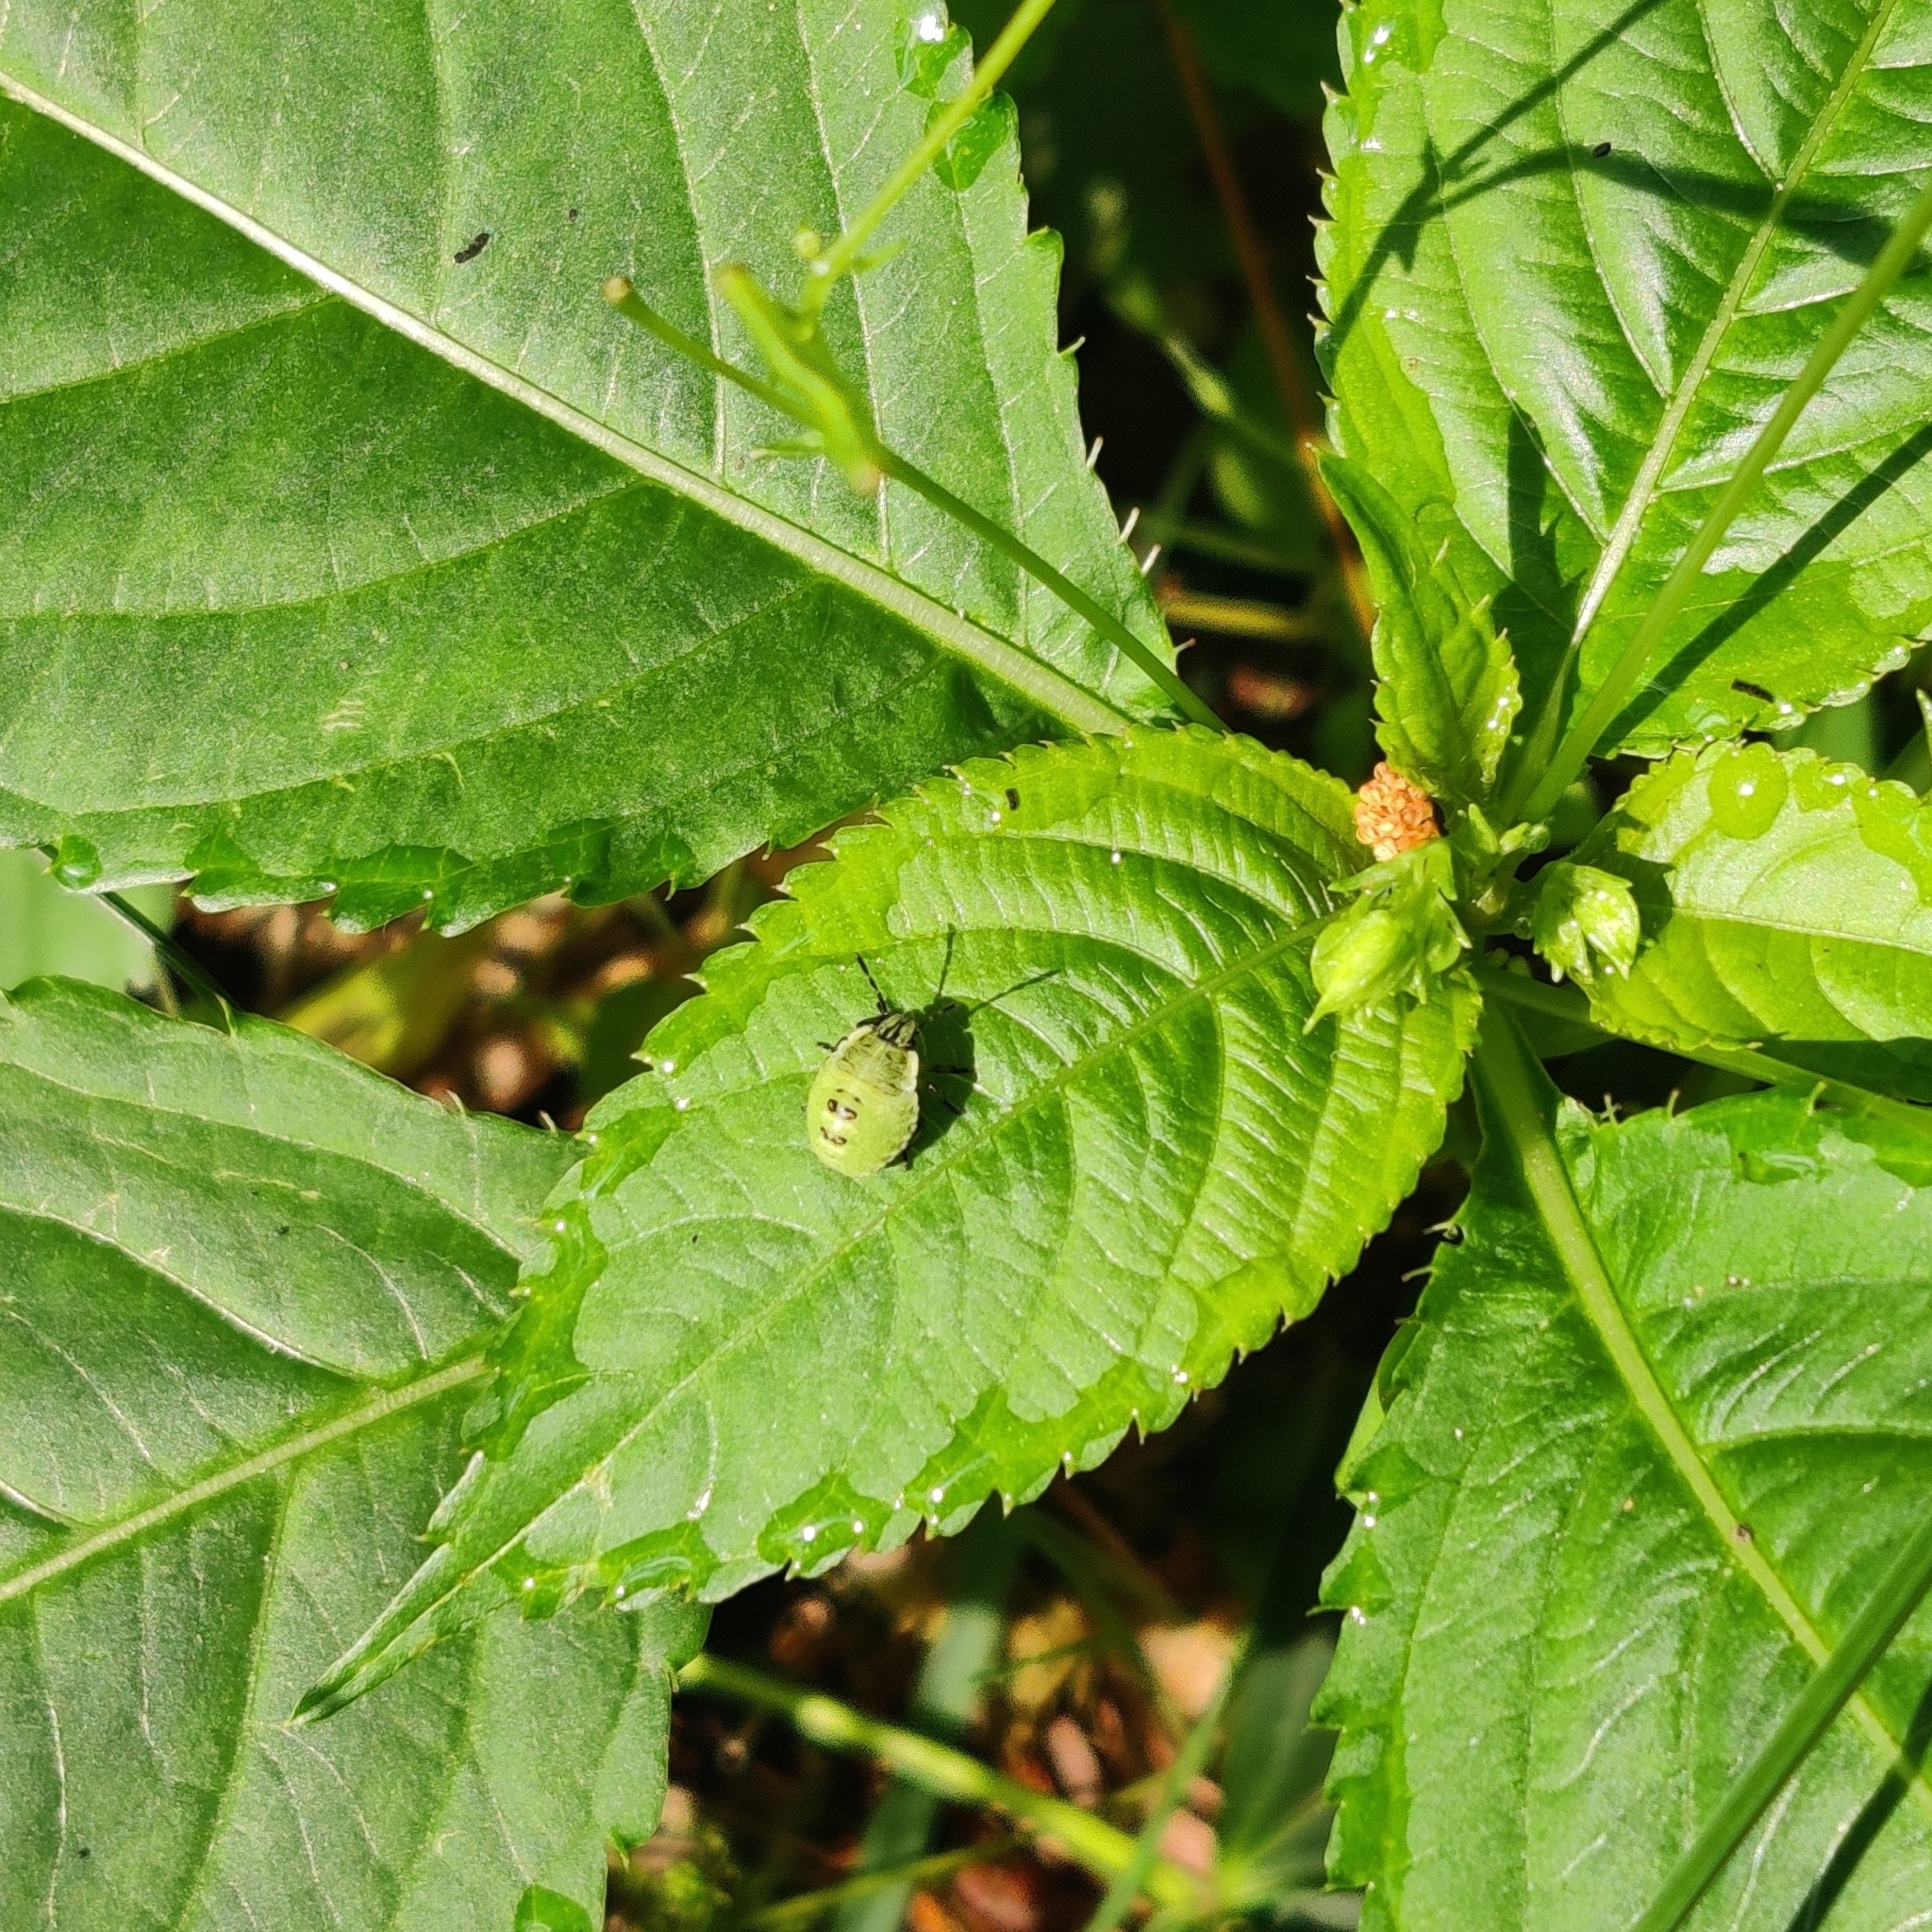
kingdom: Animalia
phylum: Arthropoda
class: Insecta
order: Hemiptera
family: Pentatomidae
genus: Palomena
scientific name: Palomena prasina
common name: Green shieldbug
